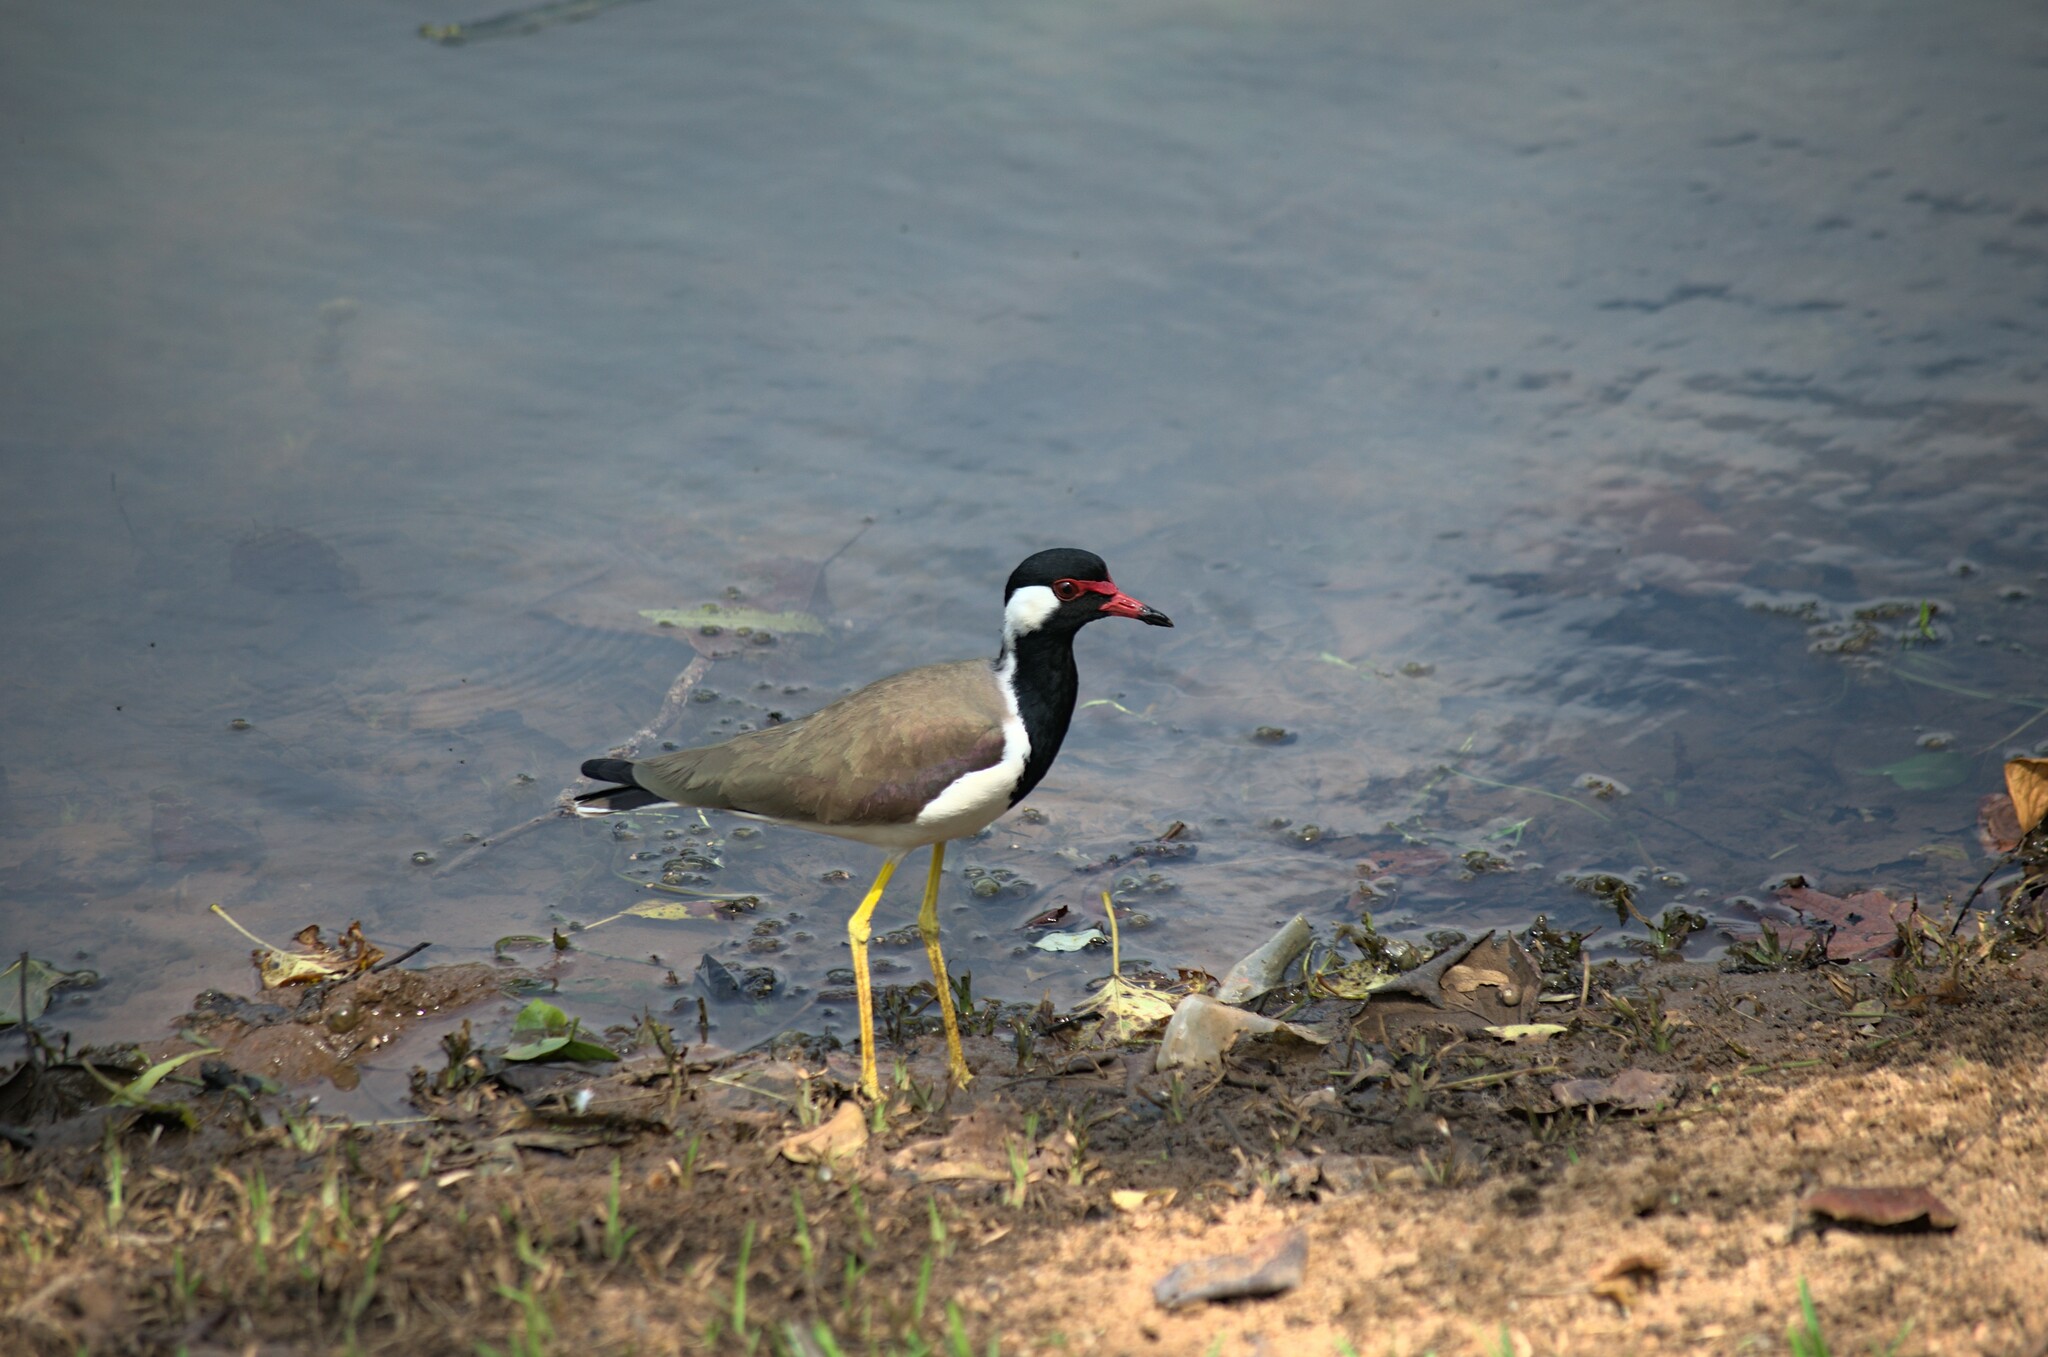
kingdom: Animalia
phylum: Chordata
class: Aves
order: Charadriiformes
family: Charadriidae
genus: Vanellus
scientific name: Vanellus indicus
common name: Red-wattled lapwing
